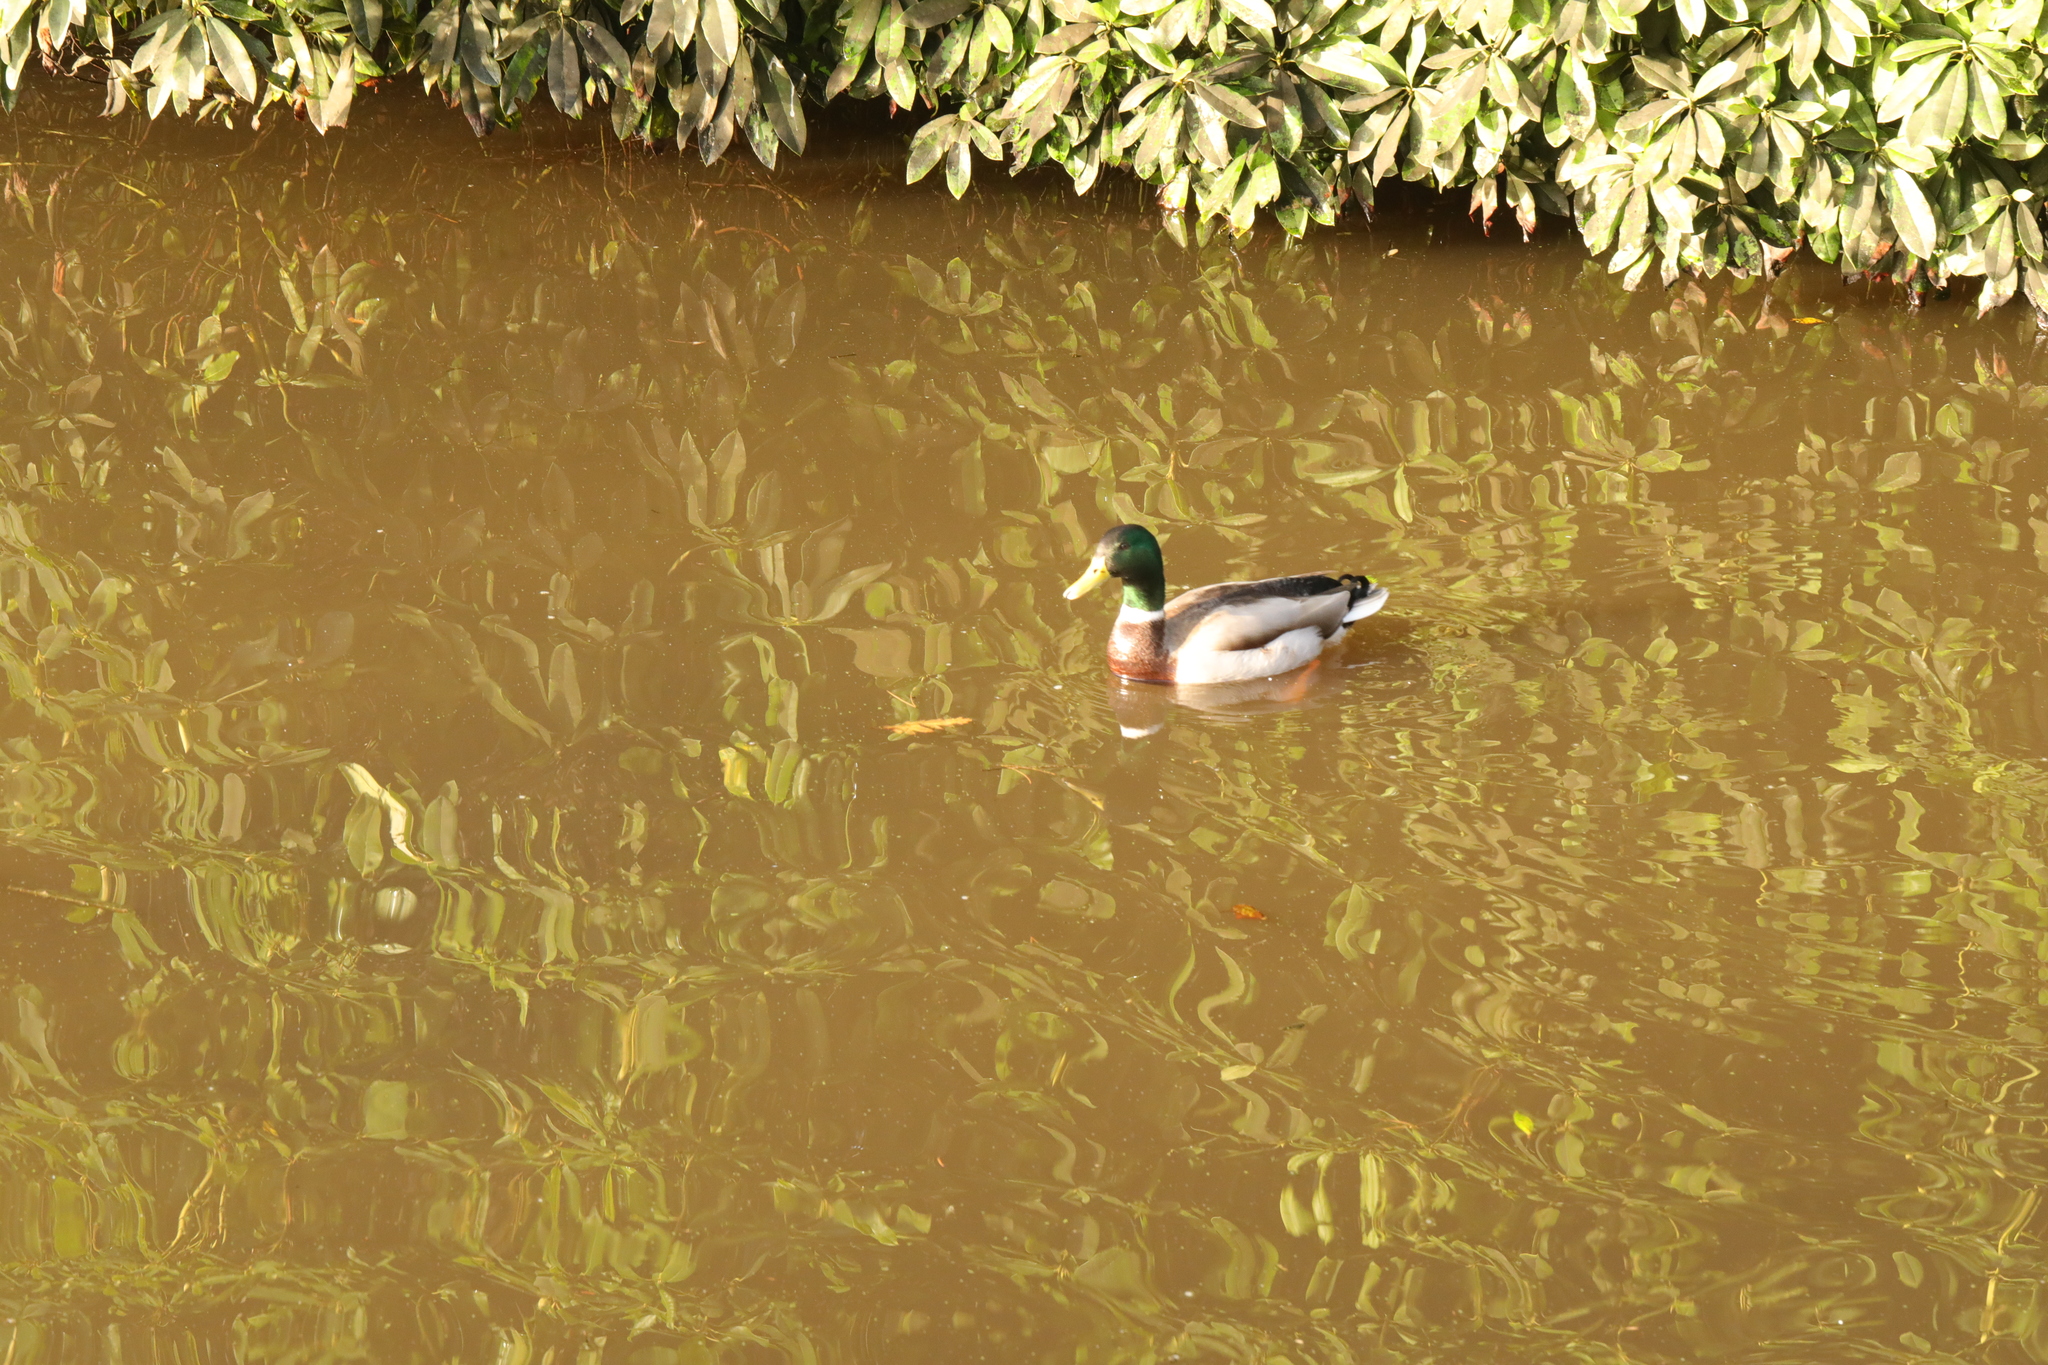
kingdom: Animalia
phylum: Chordata
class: Aves
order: Anseriformes
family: Anatidae
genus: Anas
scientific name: Anas platyrhynchos
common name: Mallard
